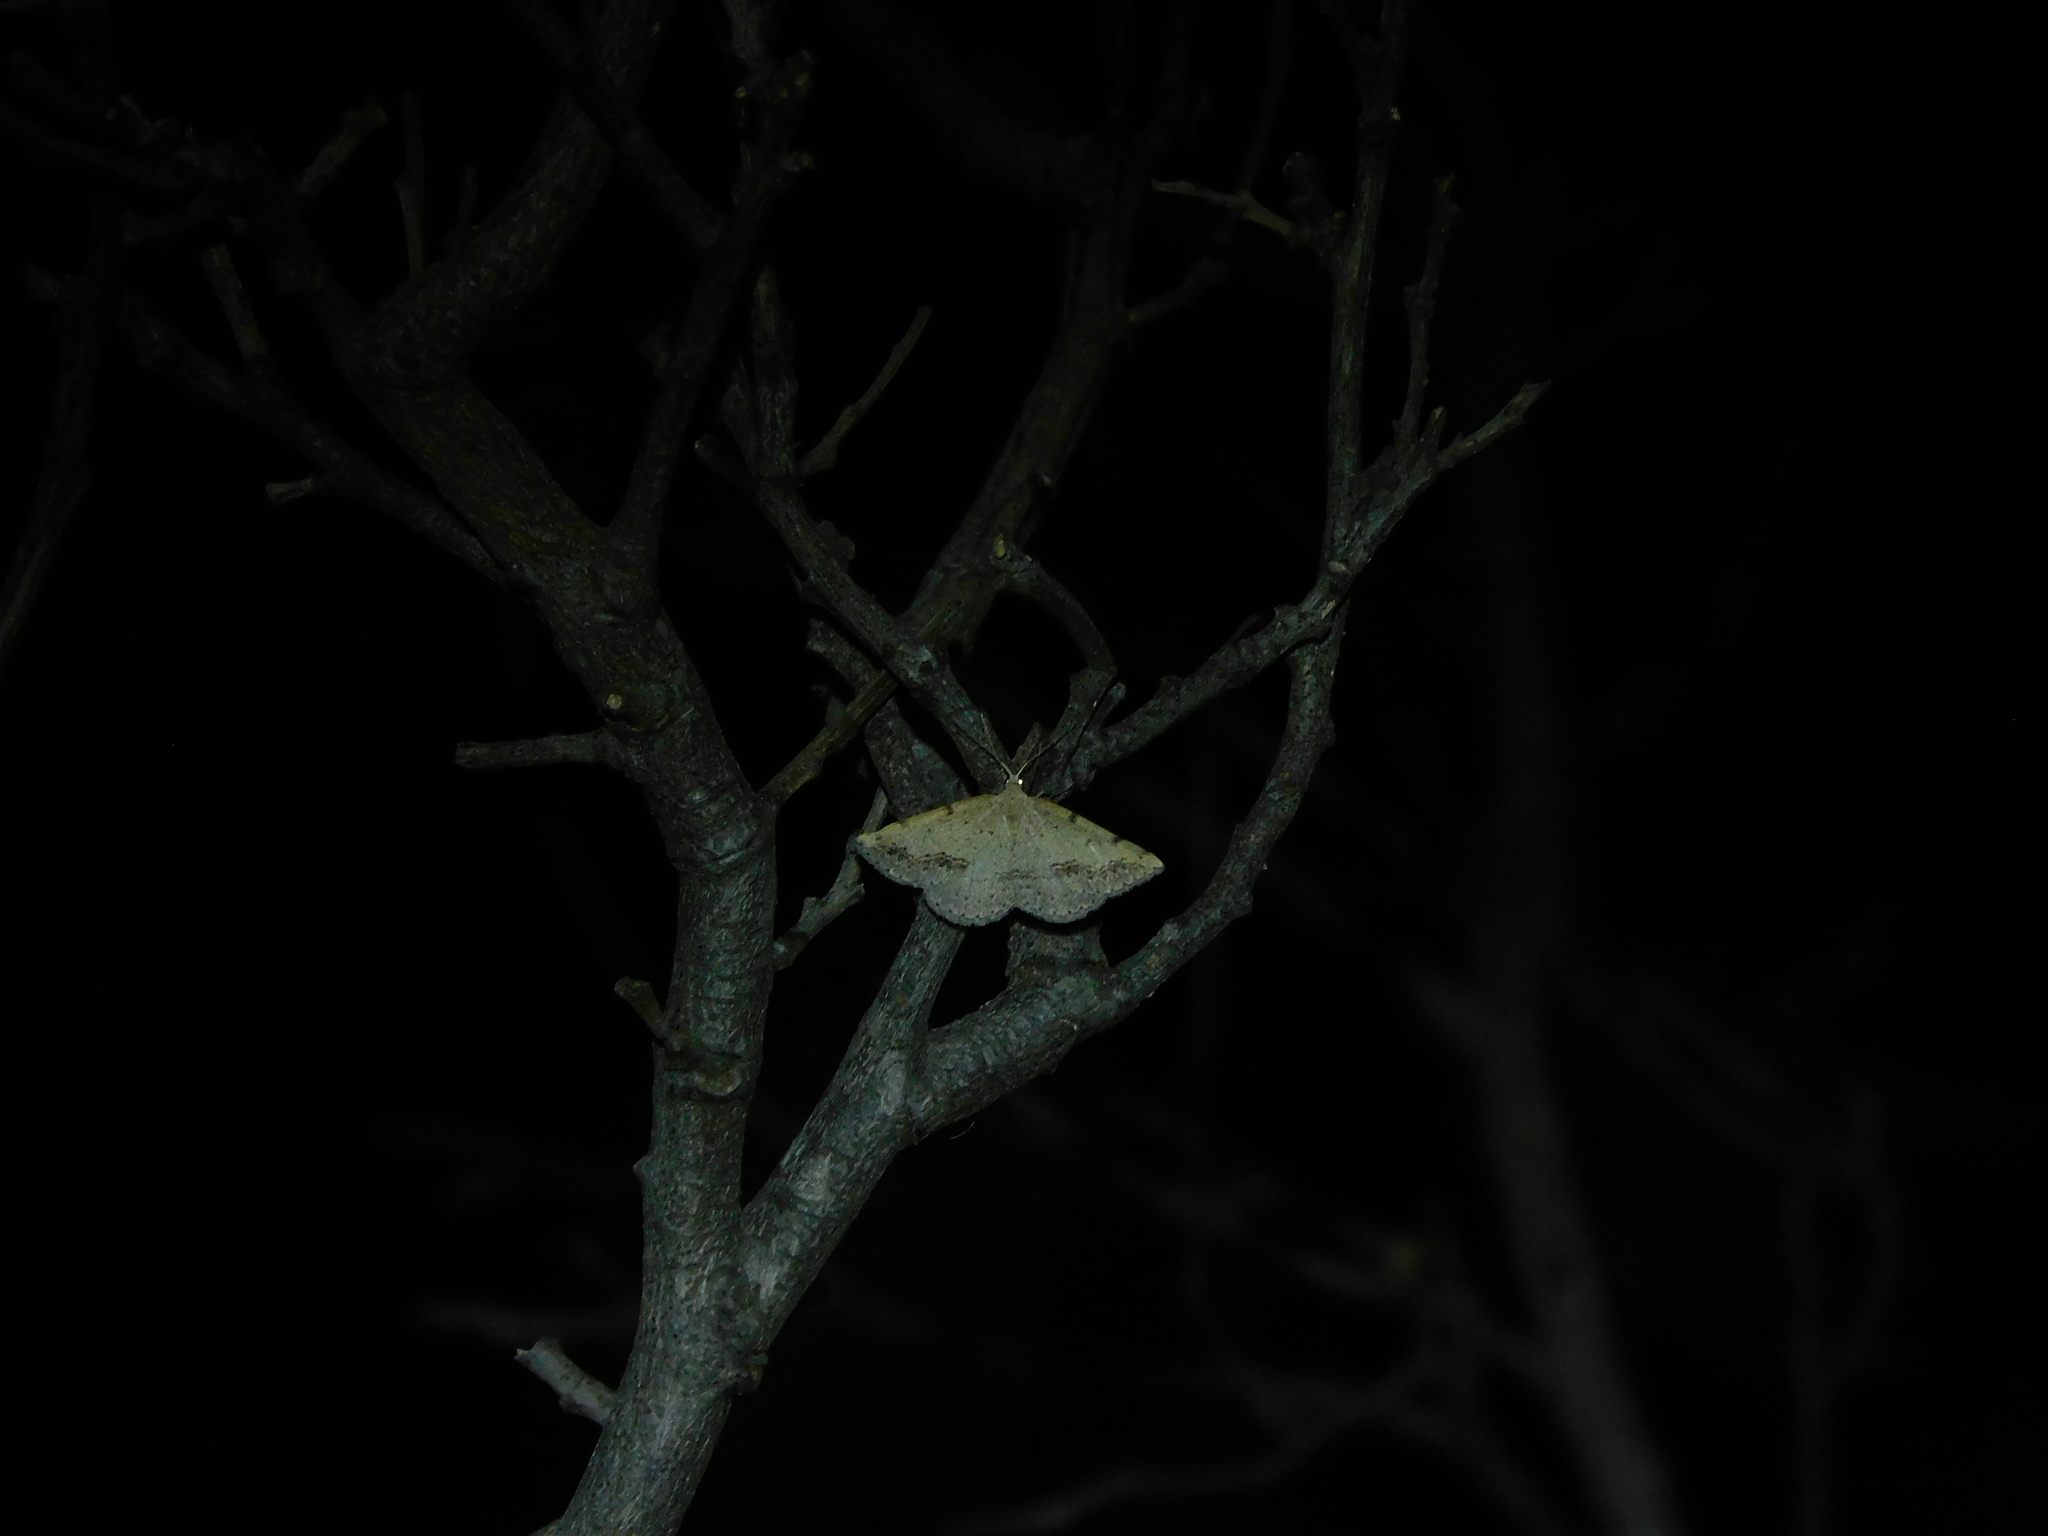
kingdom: Animalia
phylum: Arthropoda
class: Insecta
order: Lepidoptera
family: Geometridae
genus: Taxeotis
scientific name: Taxeotis intextata
